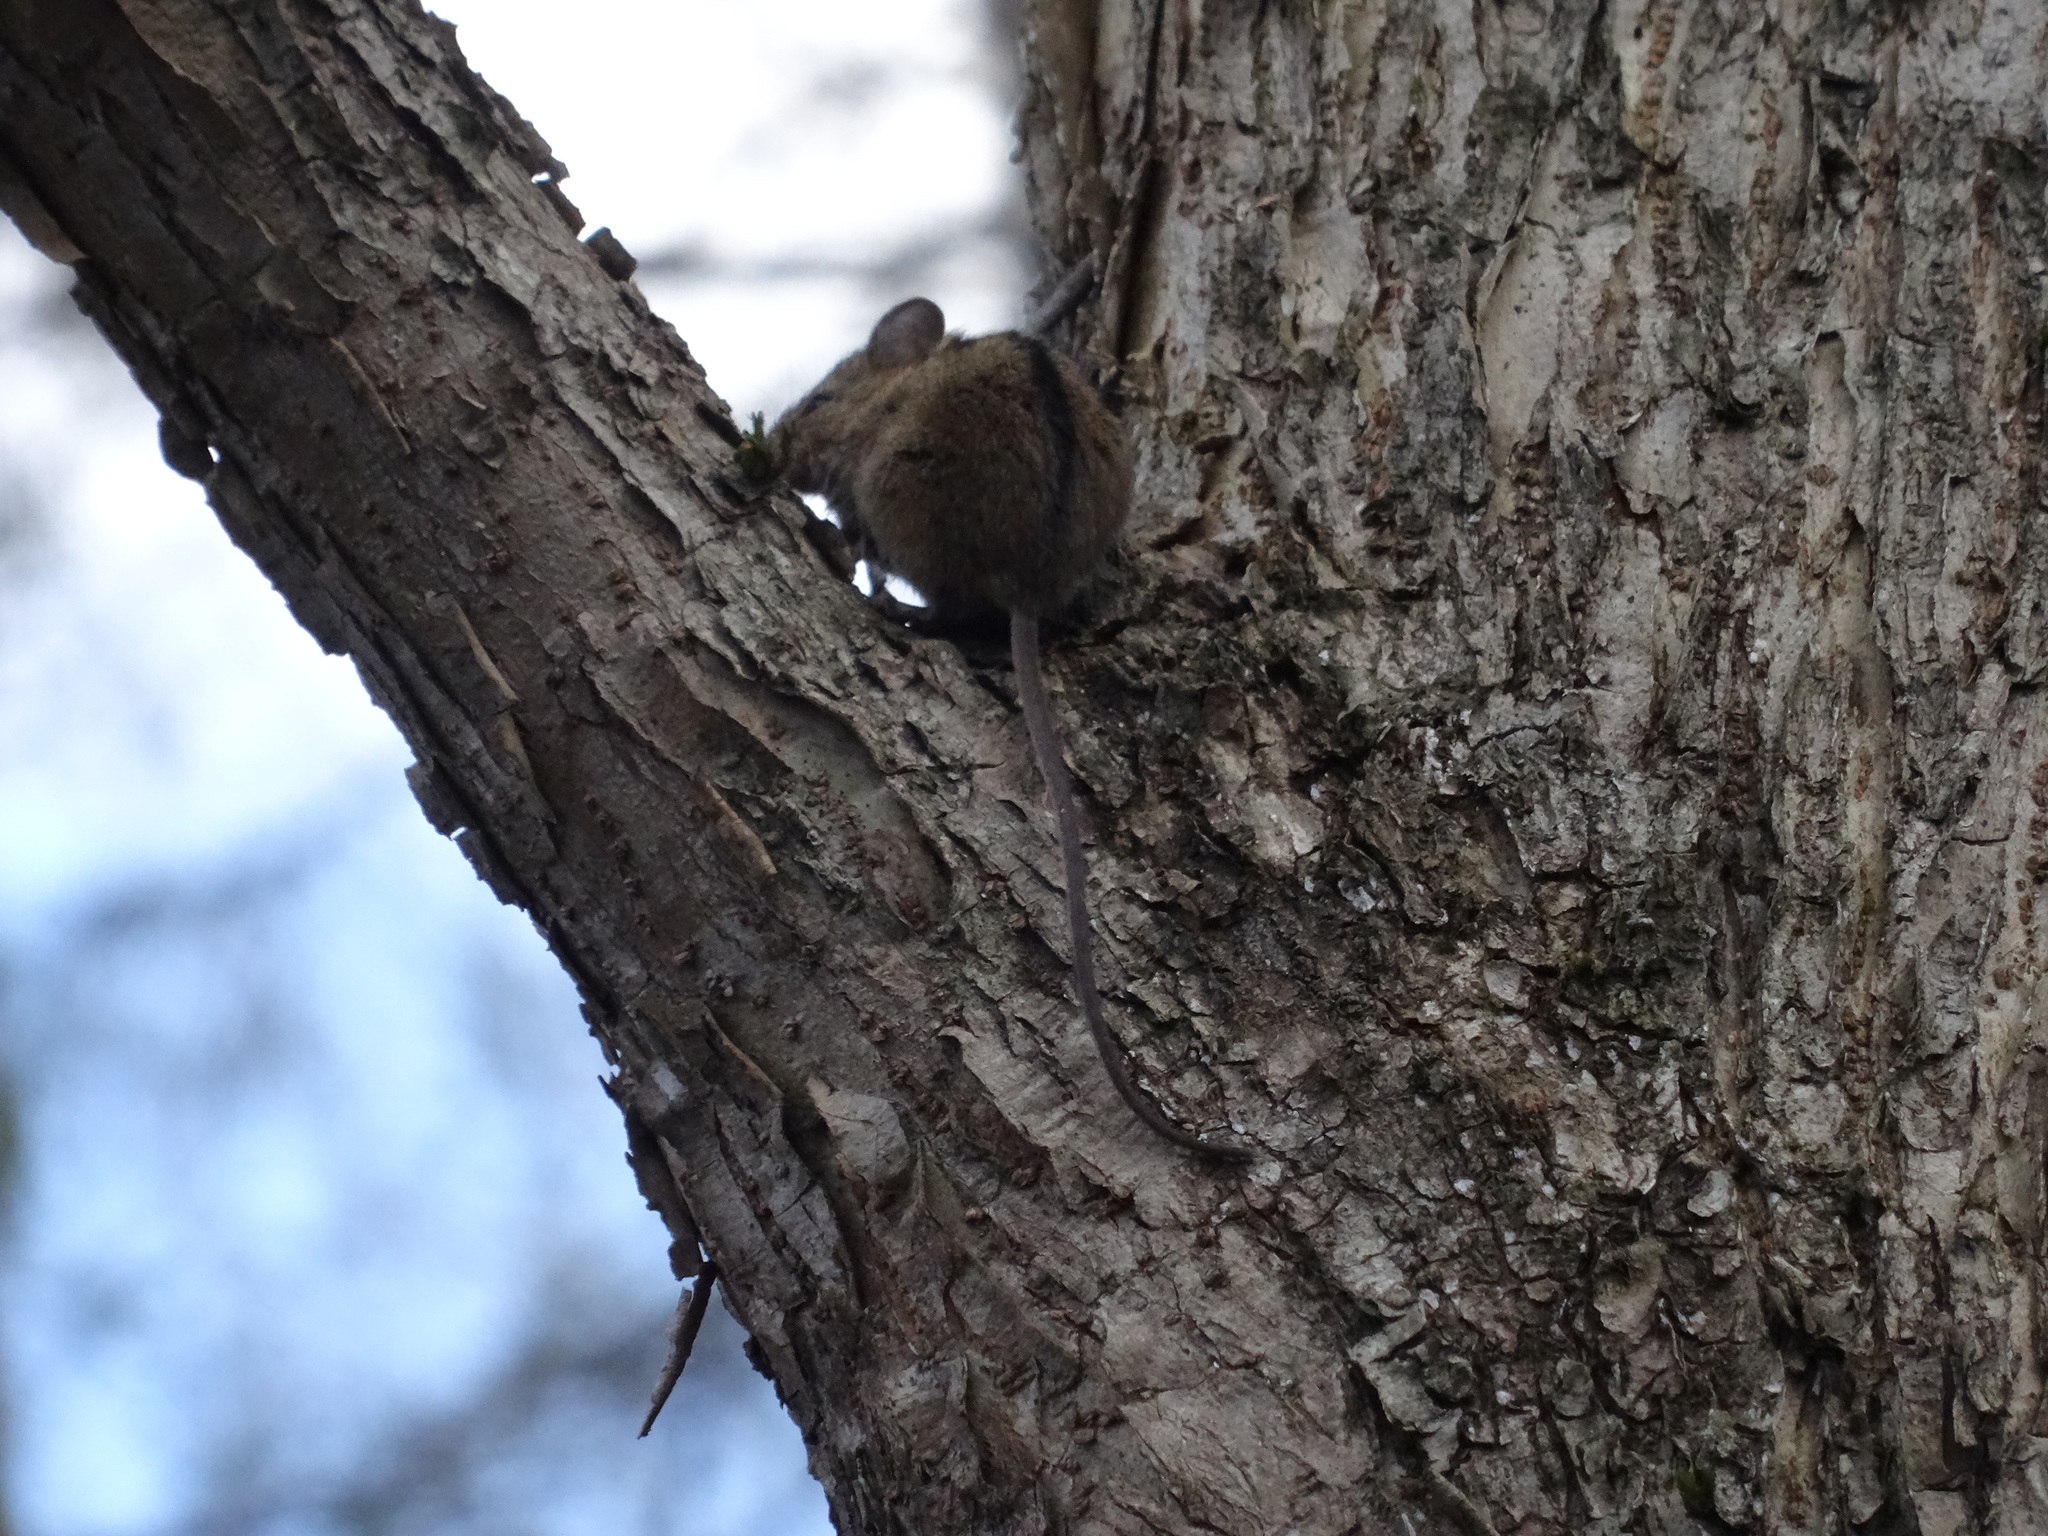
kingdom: Animalia
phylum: Chordata
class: Mammalia
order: Rodentia
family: Dipodidae
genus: Sicista
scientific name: Sicista betulina
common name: Northern birch mouse
